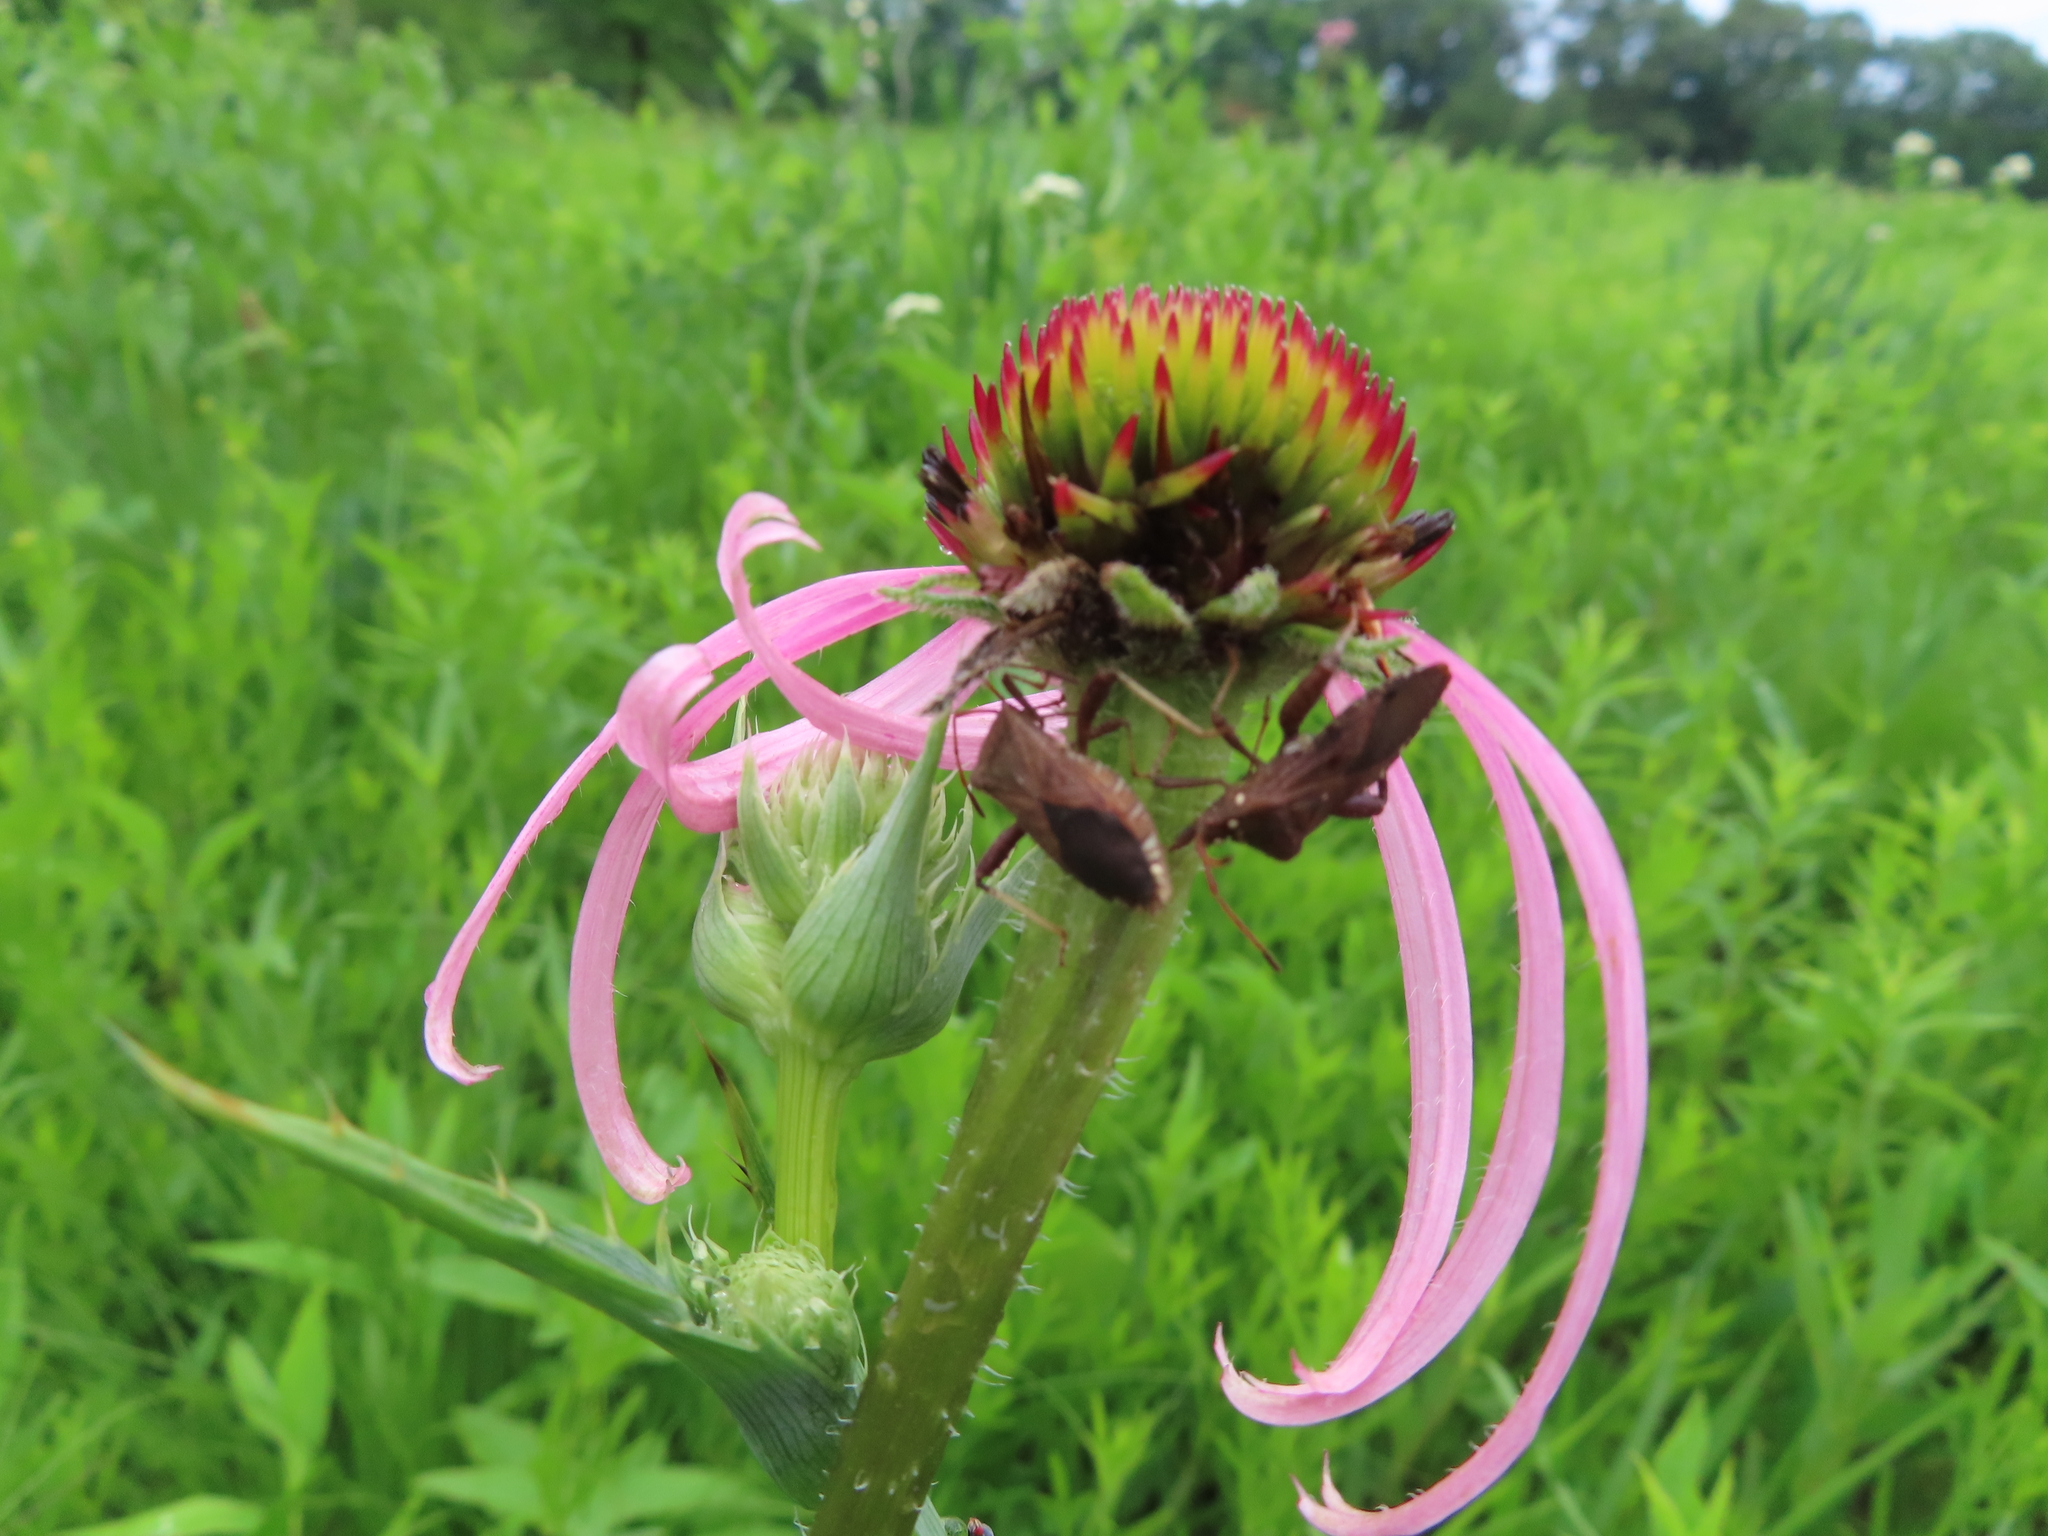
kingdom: Animalia
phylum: Arthropoda
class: Insecta
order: Hemiptera
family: Coreidae
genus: Euthochtha
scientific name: Euthochtha galeator
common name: Helmeted squash bug
